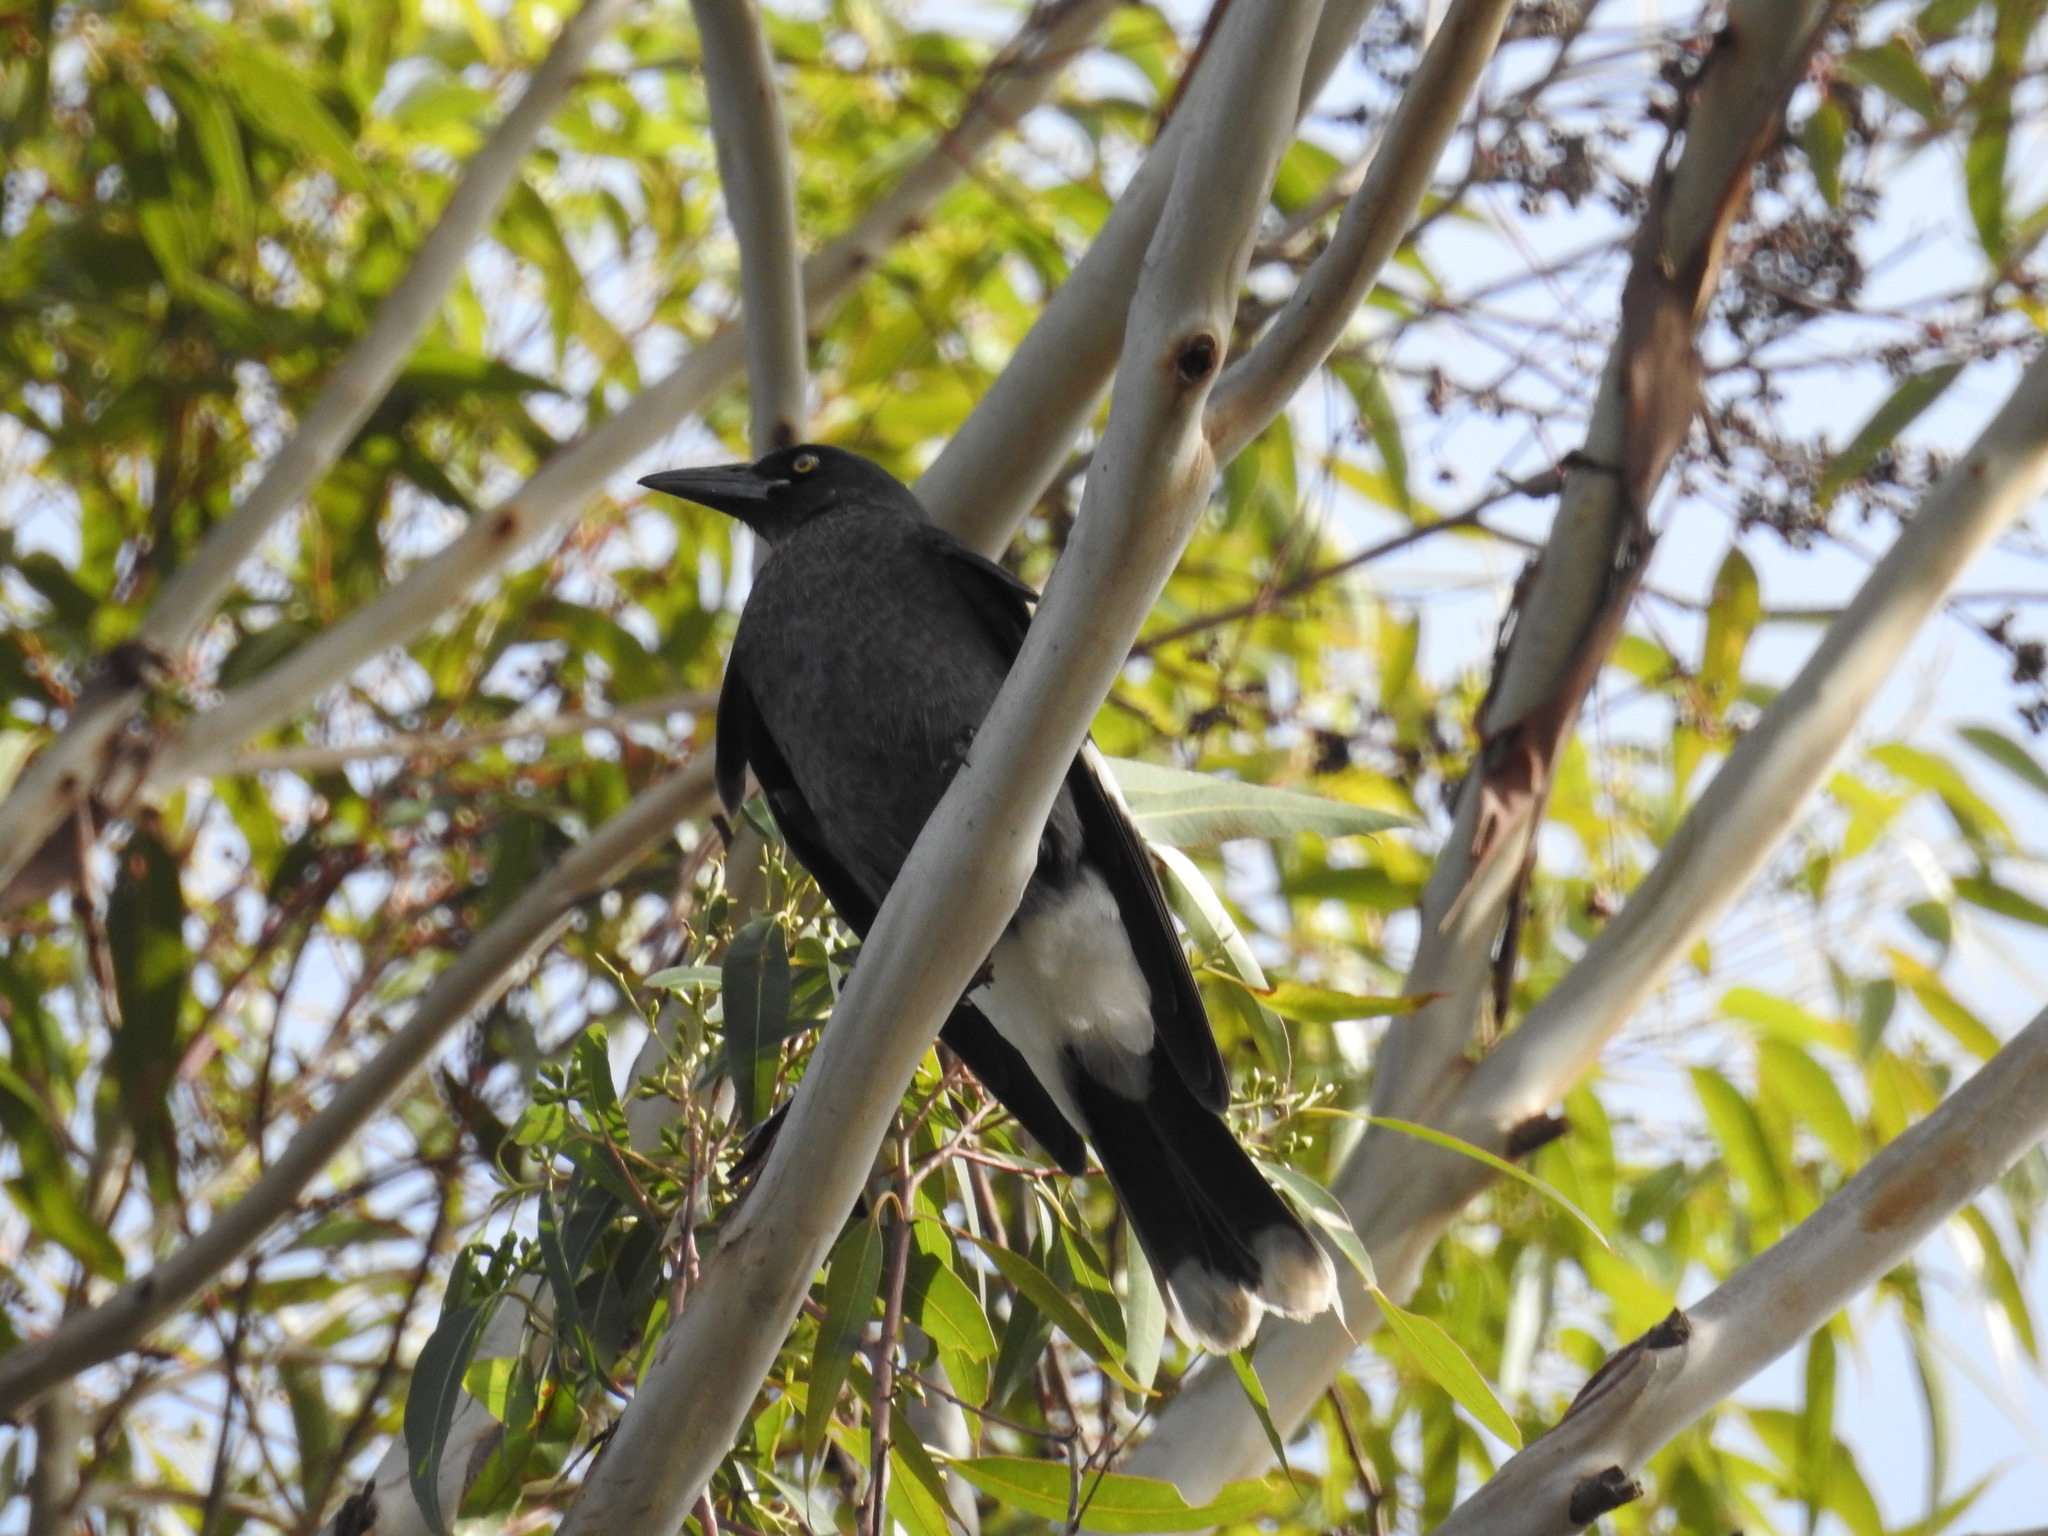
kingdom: Animalia
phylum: Chordata
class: Aves
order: Passeriformes
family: Cracticidae
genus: Strepera
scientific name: Strepera graculina
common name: Pied currawong
